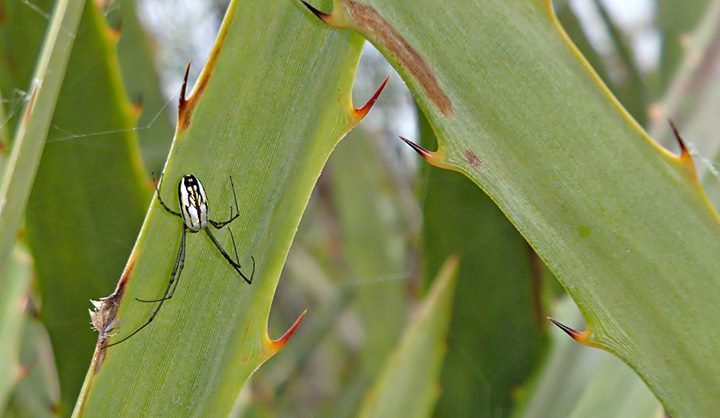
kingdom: Animalia
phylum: Arthropoda
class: Arachnida
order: Araneae
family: Tetragnathidae
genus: Leucauge
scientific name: Leucauge argyra
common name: Longjawed orb weavers
